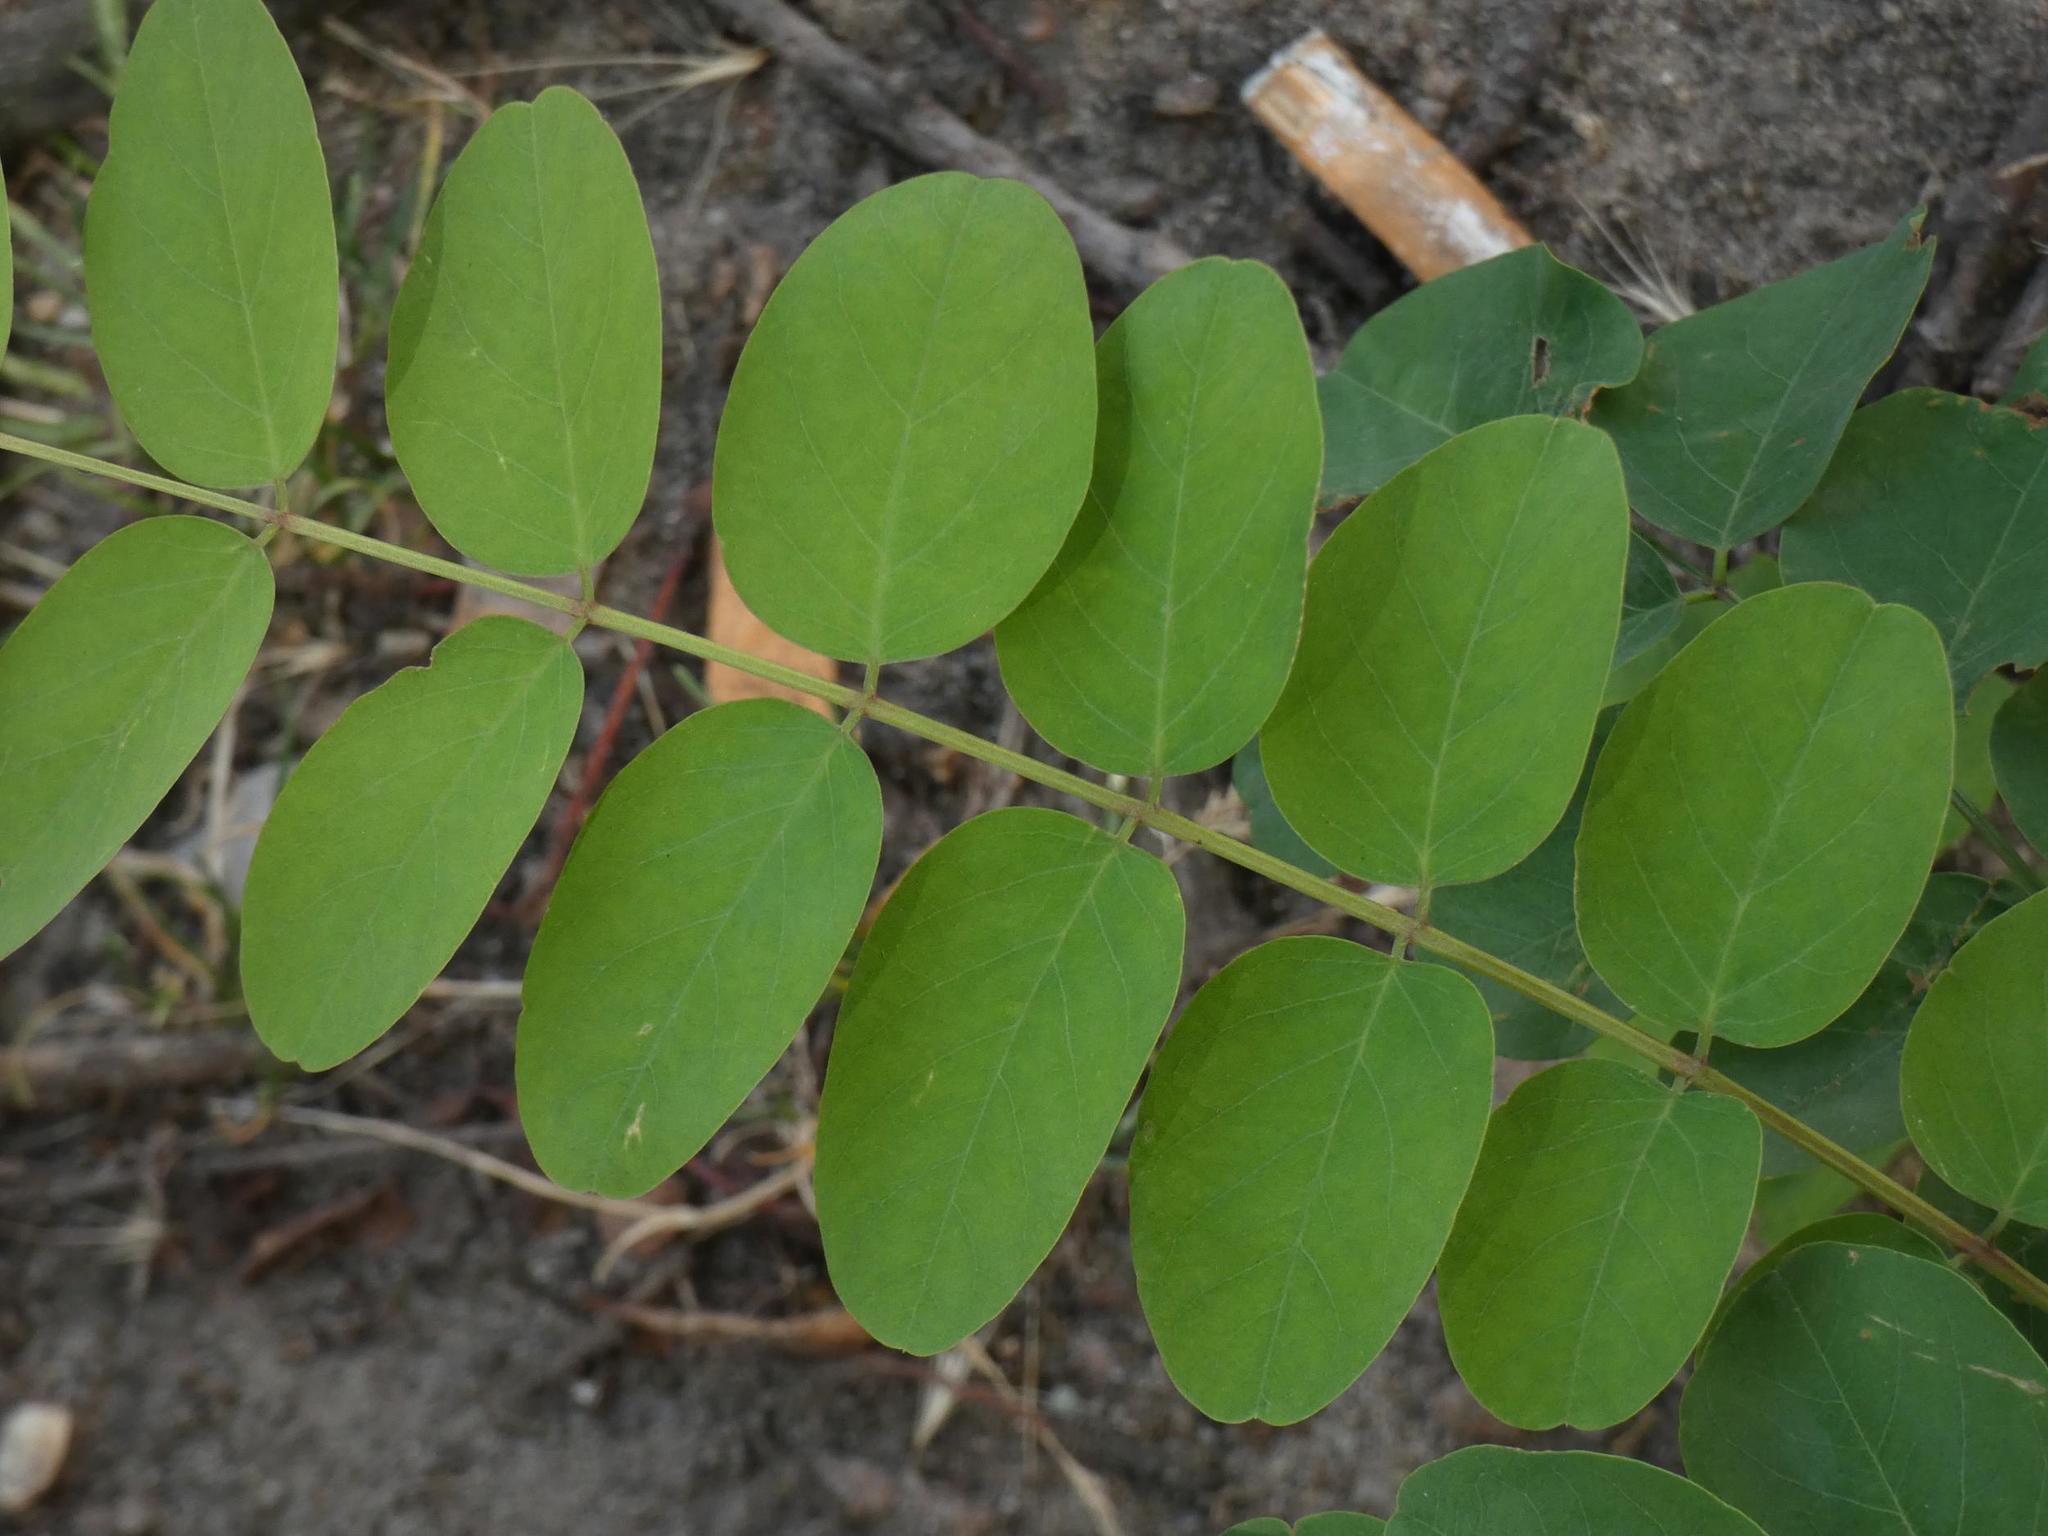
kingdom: Plantae
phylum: Tracheophyta
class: Magnoliopsida
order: Fabales
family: Fabaceae
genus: Robinia
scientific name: Robinia pseudoacacia
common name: Black locust
